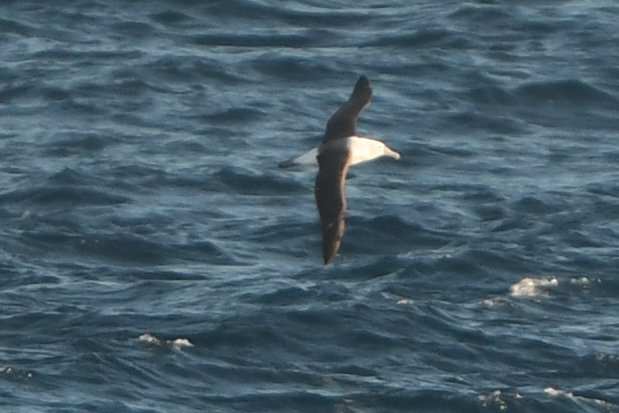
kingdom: Animalia
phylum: Chordata
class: Aves
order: Procellariiformes
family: Diomedeidae
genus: Thalassarche
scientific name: Thalassarche cauta
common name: Shy albatross
